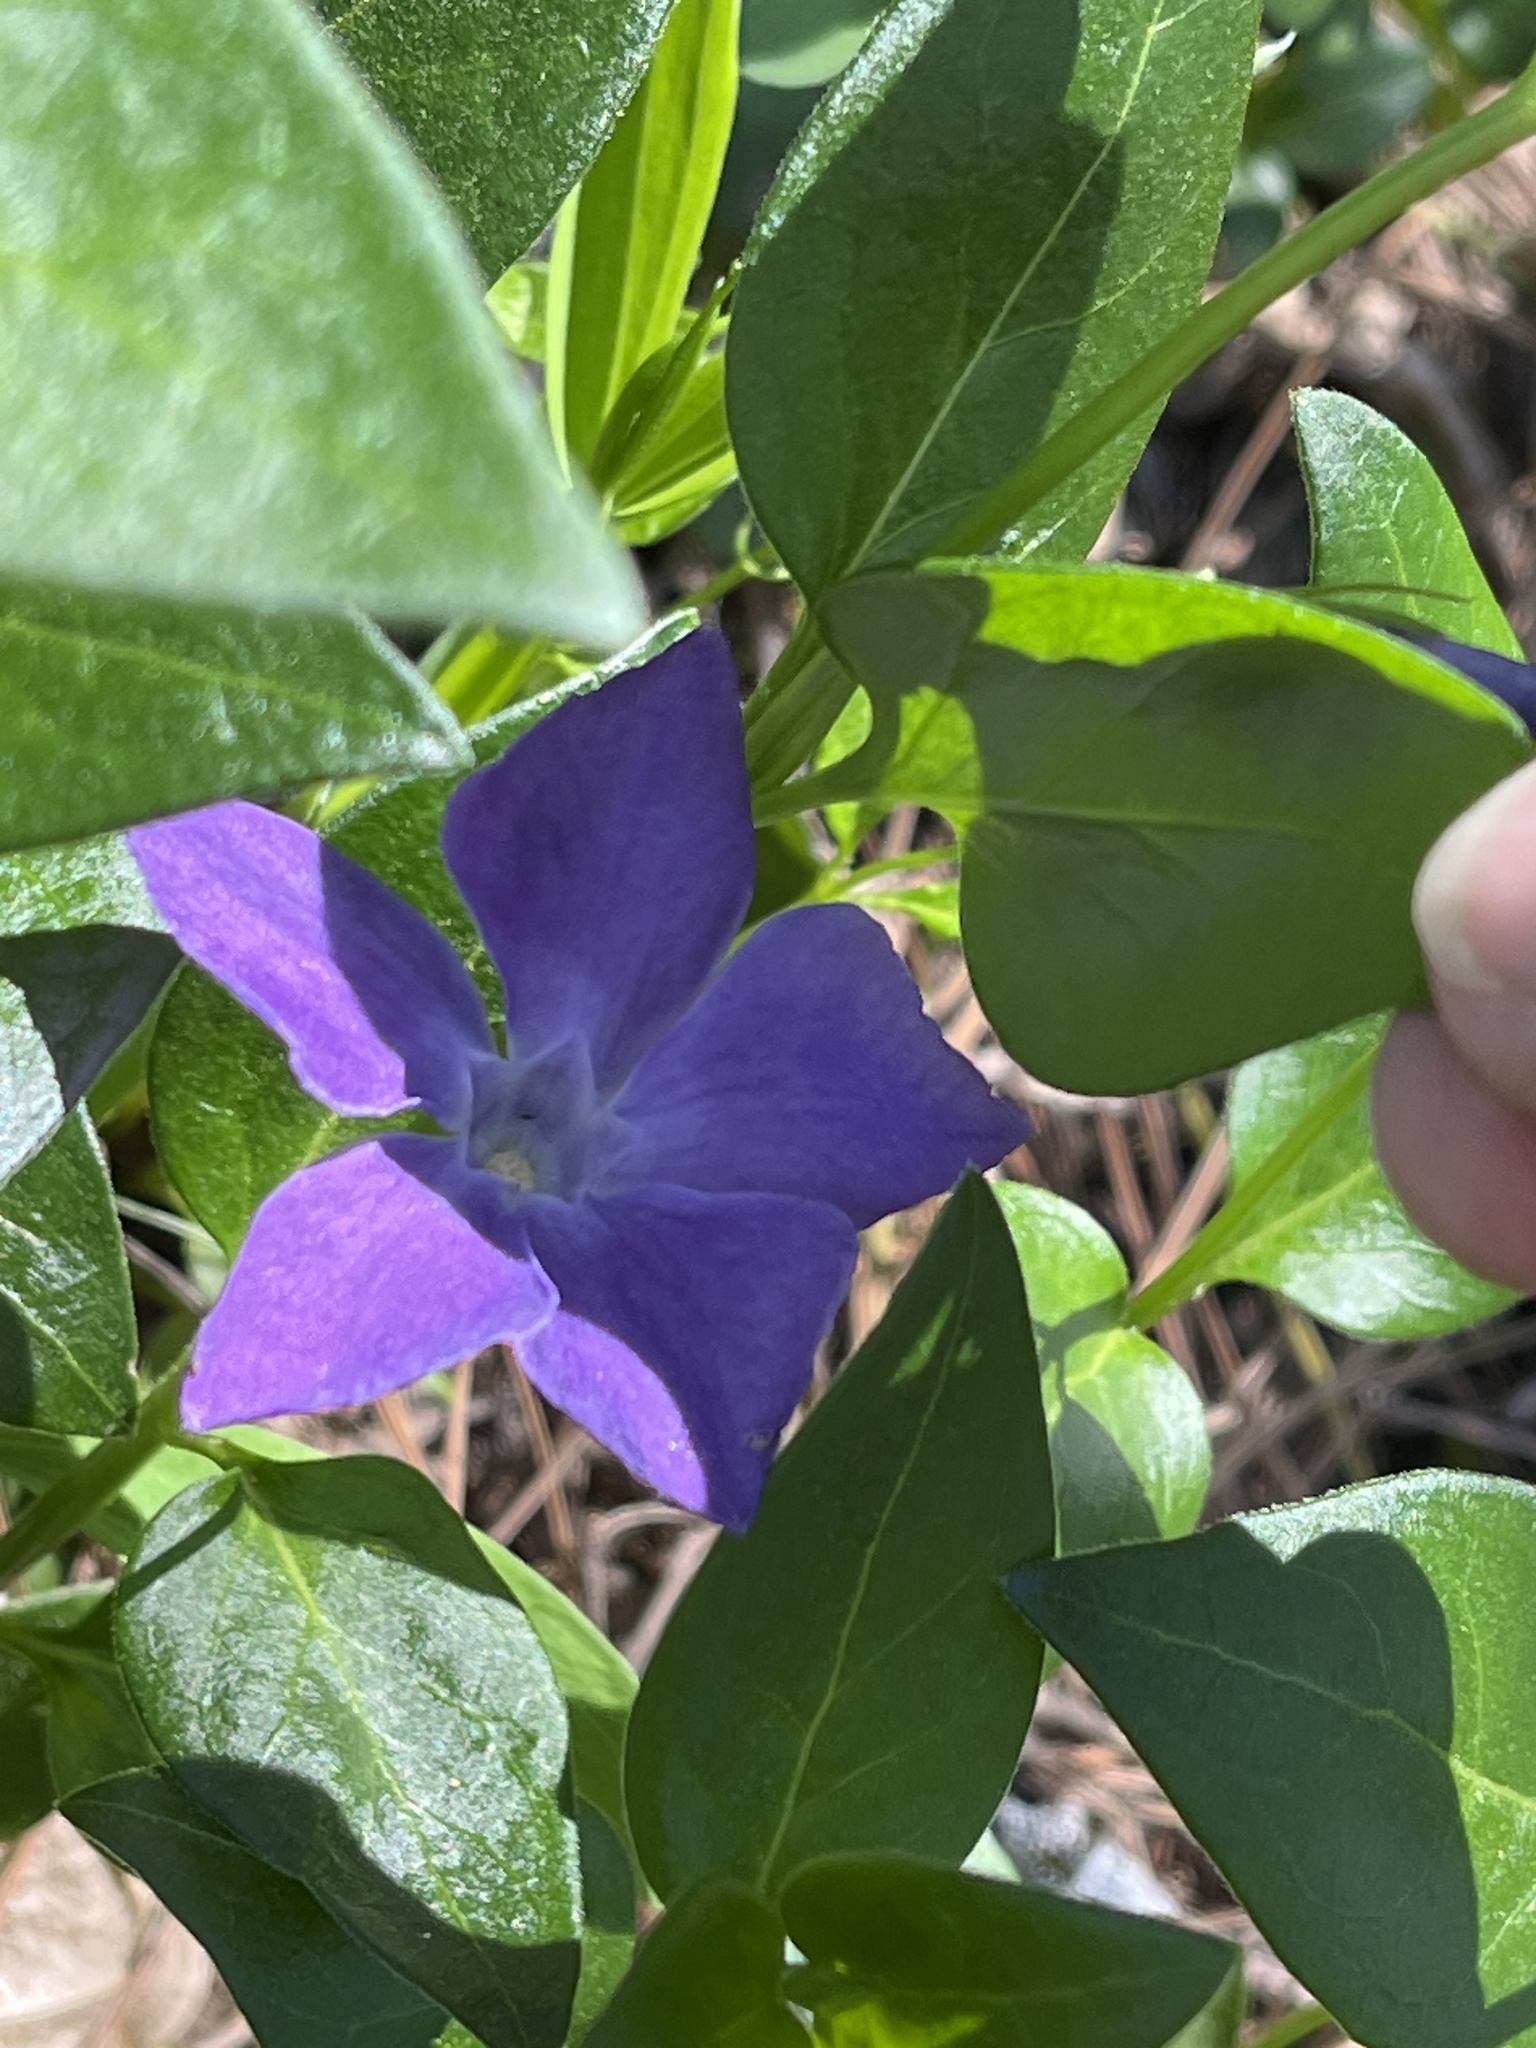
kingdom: Plantae
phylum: Tracheophyta
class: Magnoliopsida
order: Gentianales
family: Apocynaceae
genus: Vinca
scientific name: Vinca major
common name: Greater periwinkle
